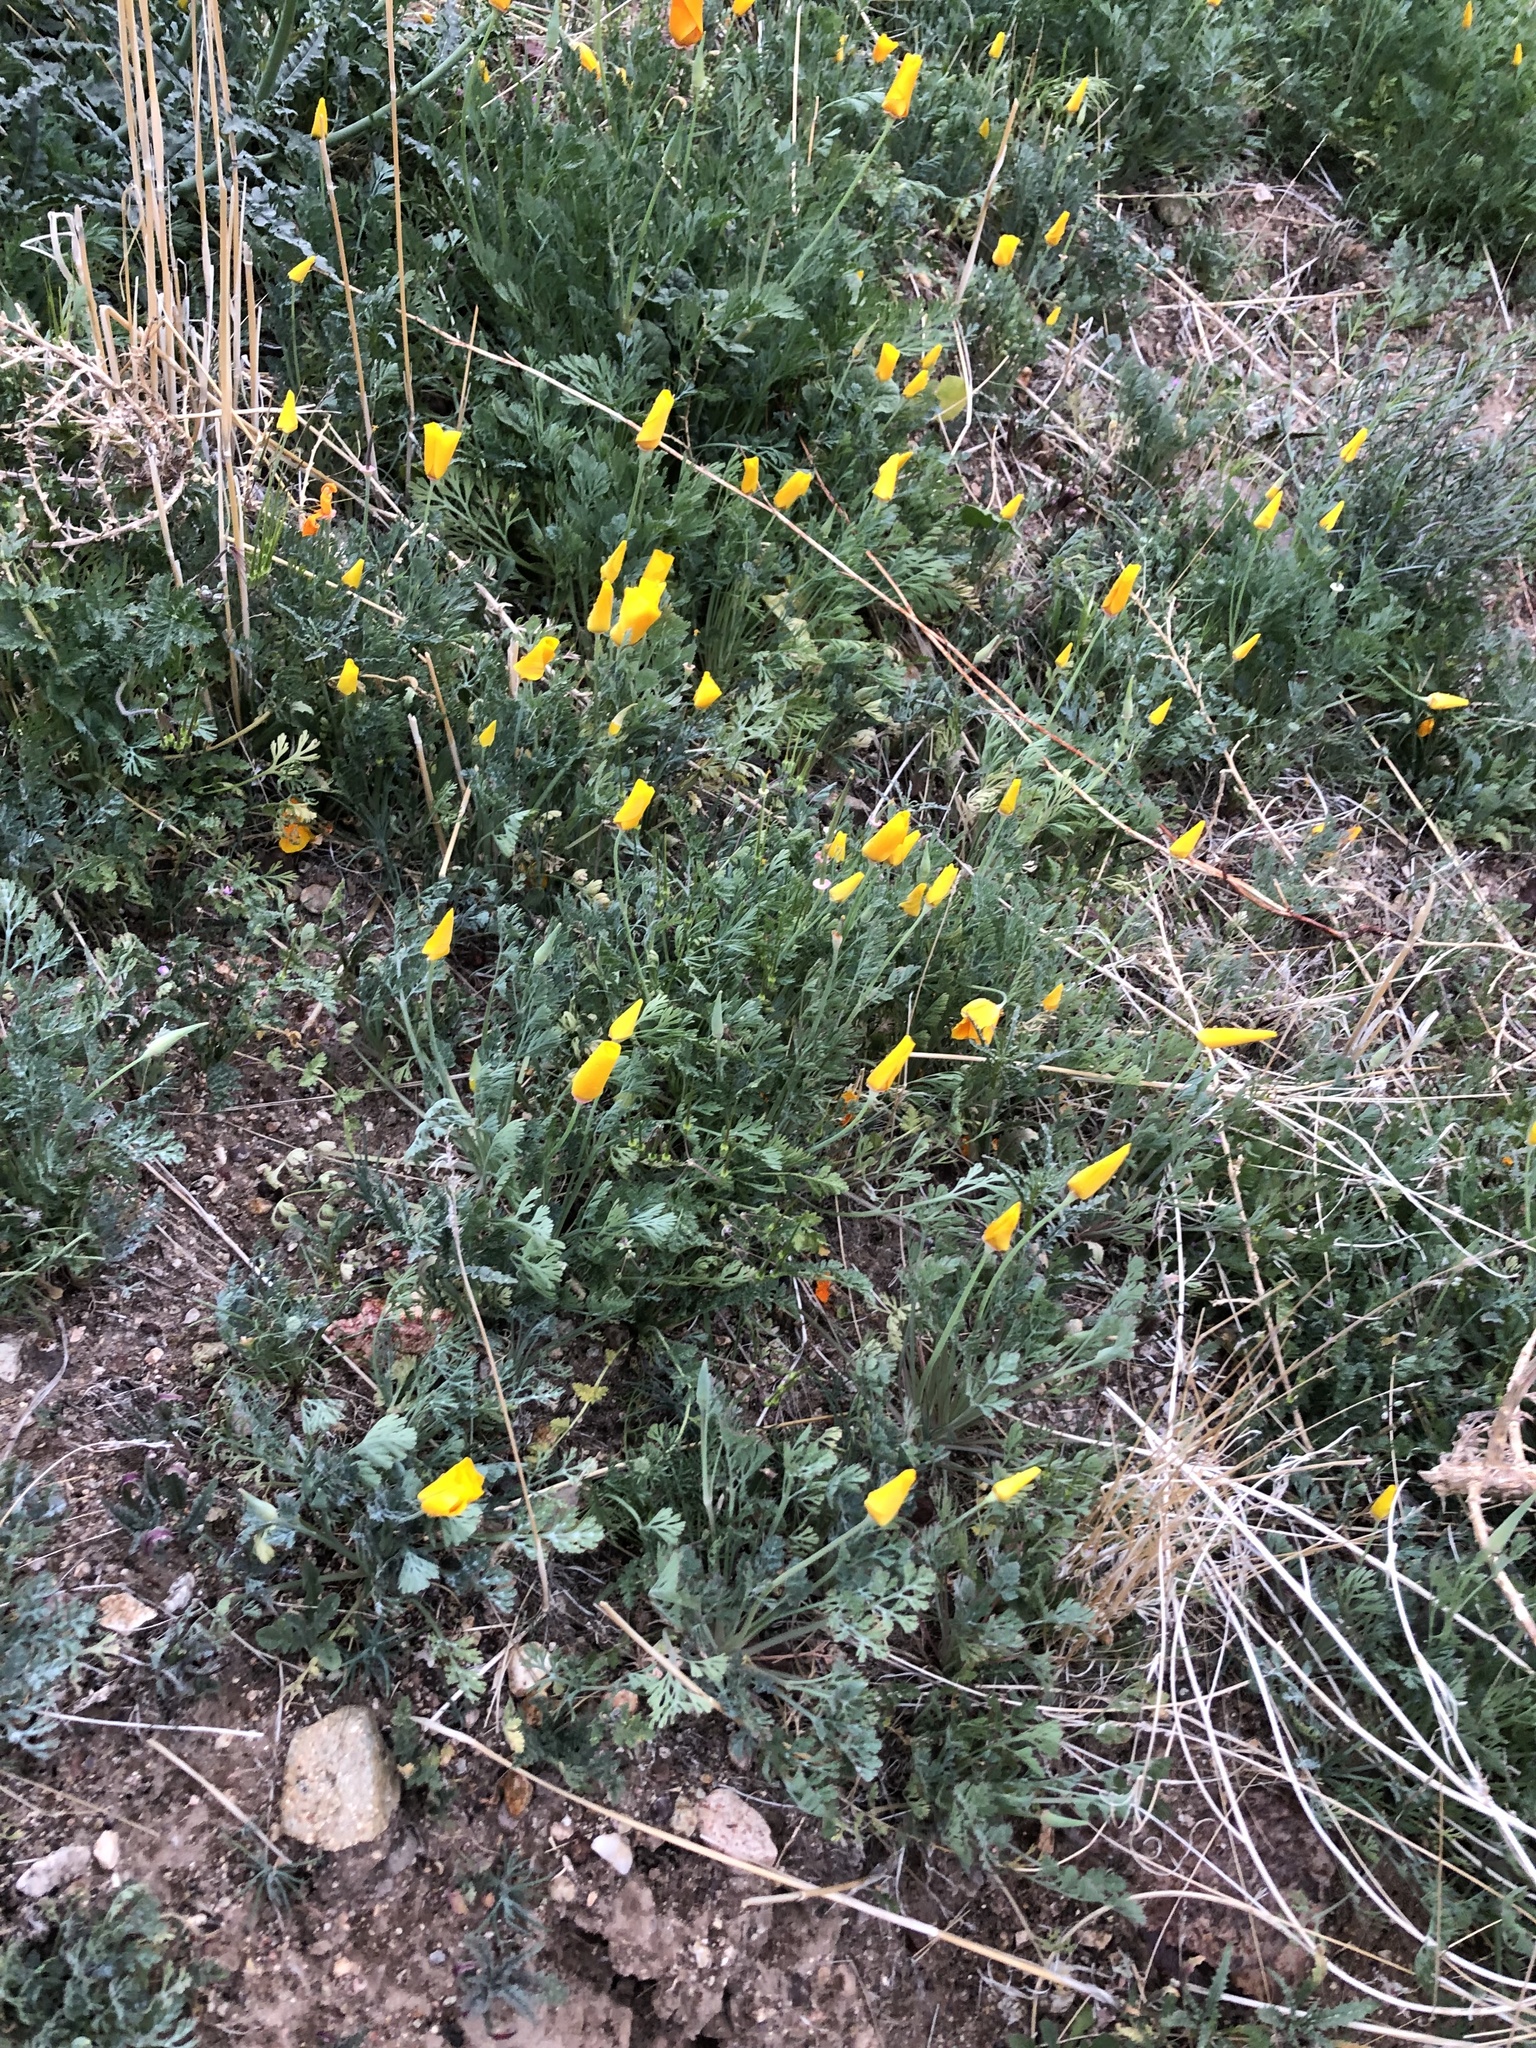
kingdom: Plantae
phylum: Tracheophyta
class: Magnoliopsida
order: Ranunculales
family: Papaveraceae
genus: Eschscholzia
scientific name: Eschscholzia californica
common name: California poppy
